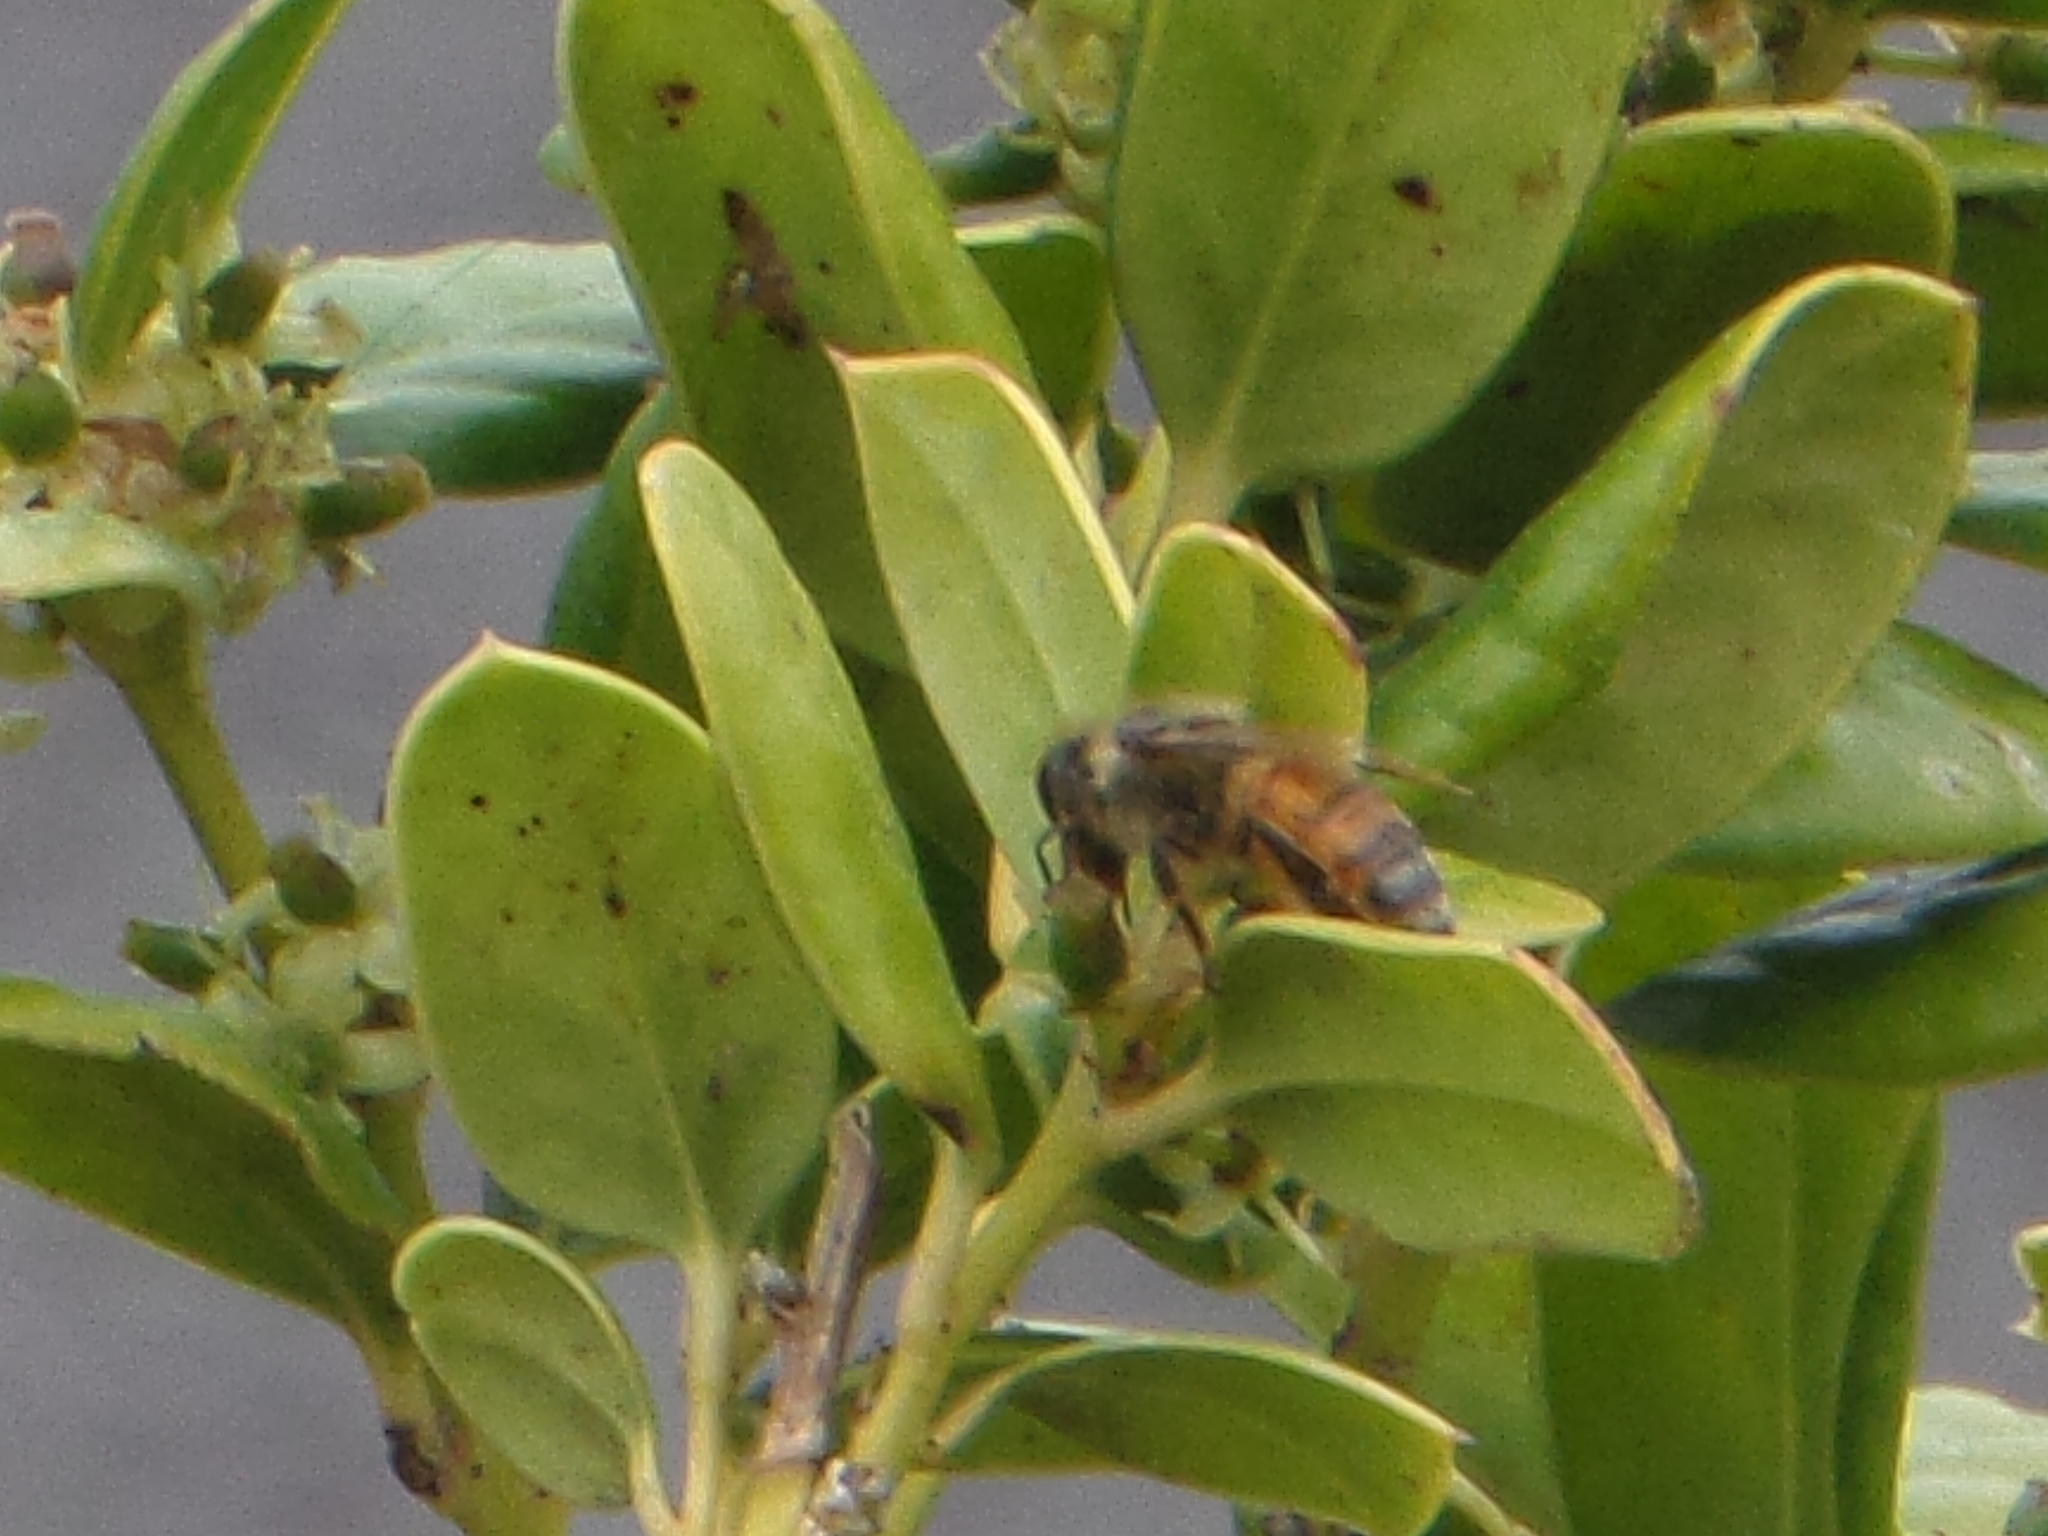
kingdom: Animalia
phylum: Arthropoda
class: Insecta
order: Hymenoptera
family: Apidae
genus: Apis
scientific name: Apis mellifera
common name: Honey bee
